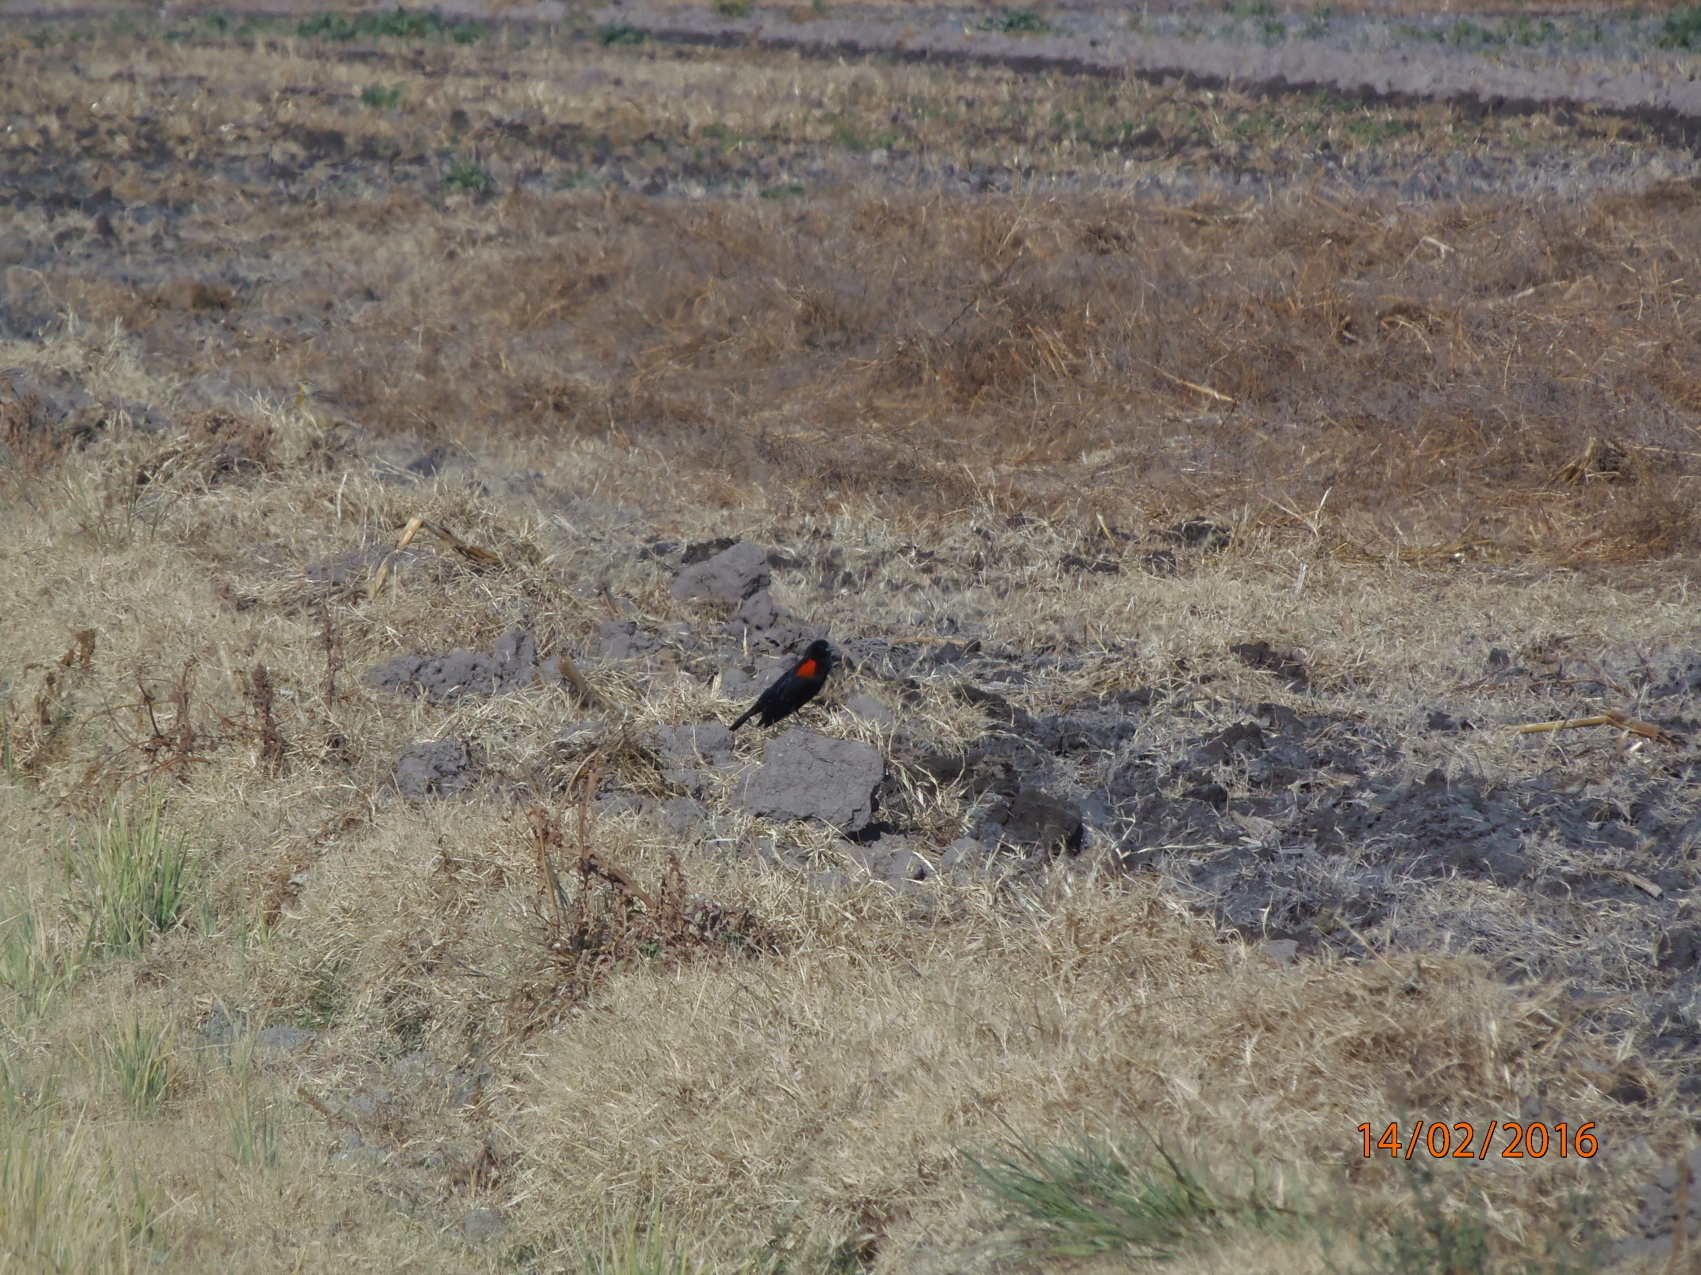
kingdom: Animalia
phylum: Chordata
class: Aves
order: Passeriformes
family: Icteridae
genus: Agelaius
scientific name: Agelaius phoeniceus
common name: Red-winged blackbird
